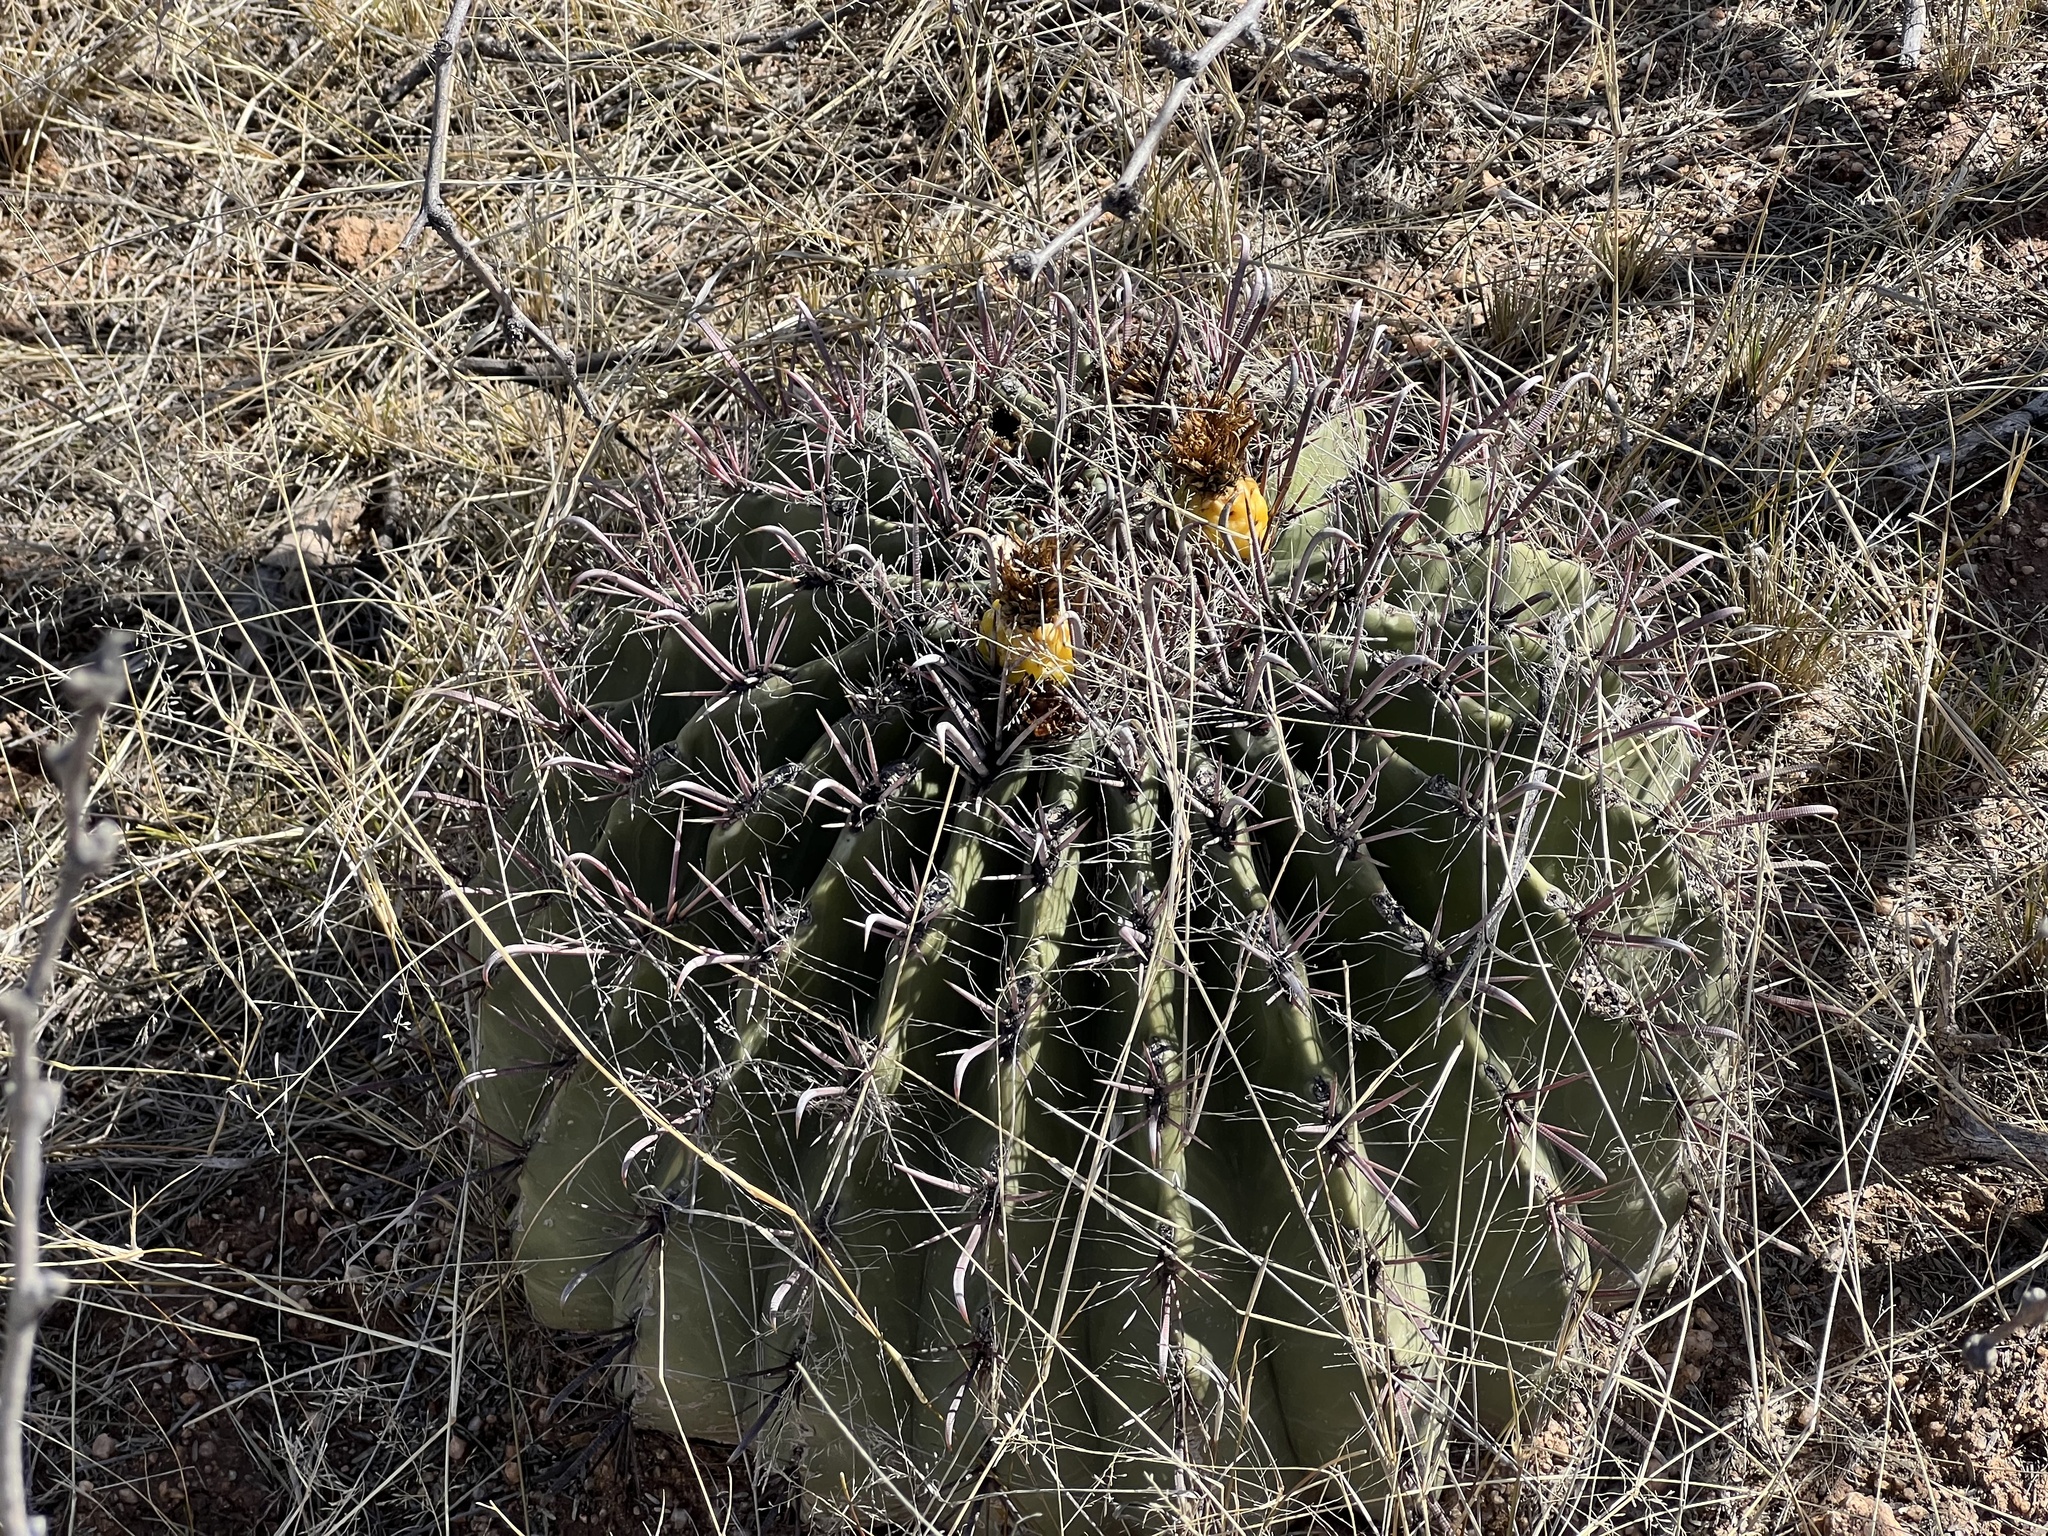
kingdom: Plantae
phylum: Tracheophyta
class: Magnoliopsida
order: Caryophyllales
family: Cactaceae
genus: Ferocactus
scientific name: Ferocactus wislizeni
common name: Candy barrel cactus
